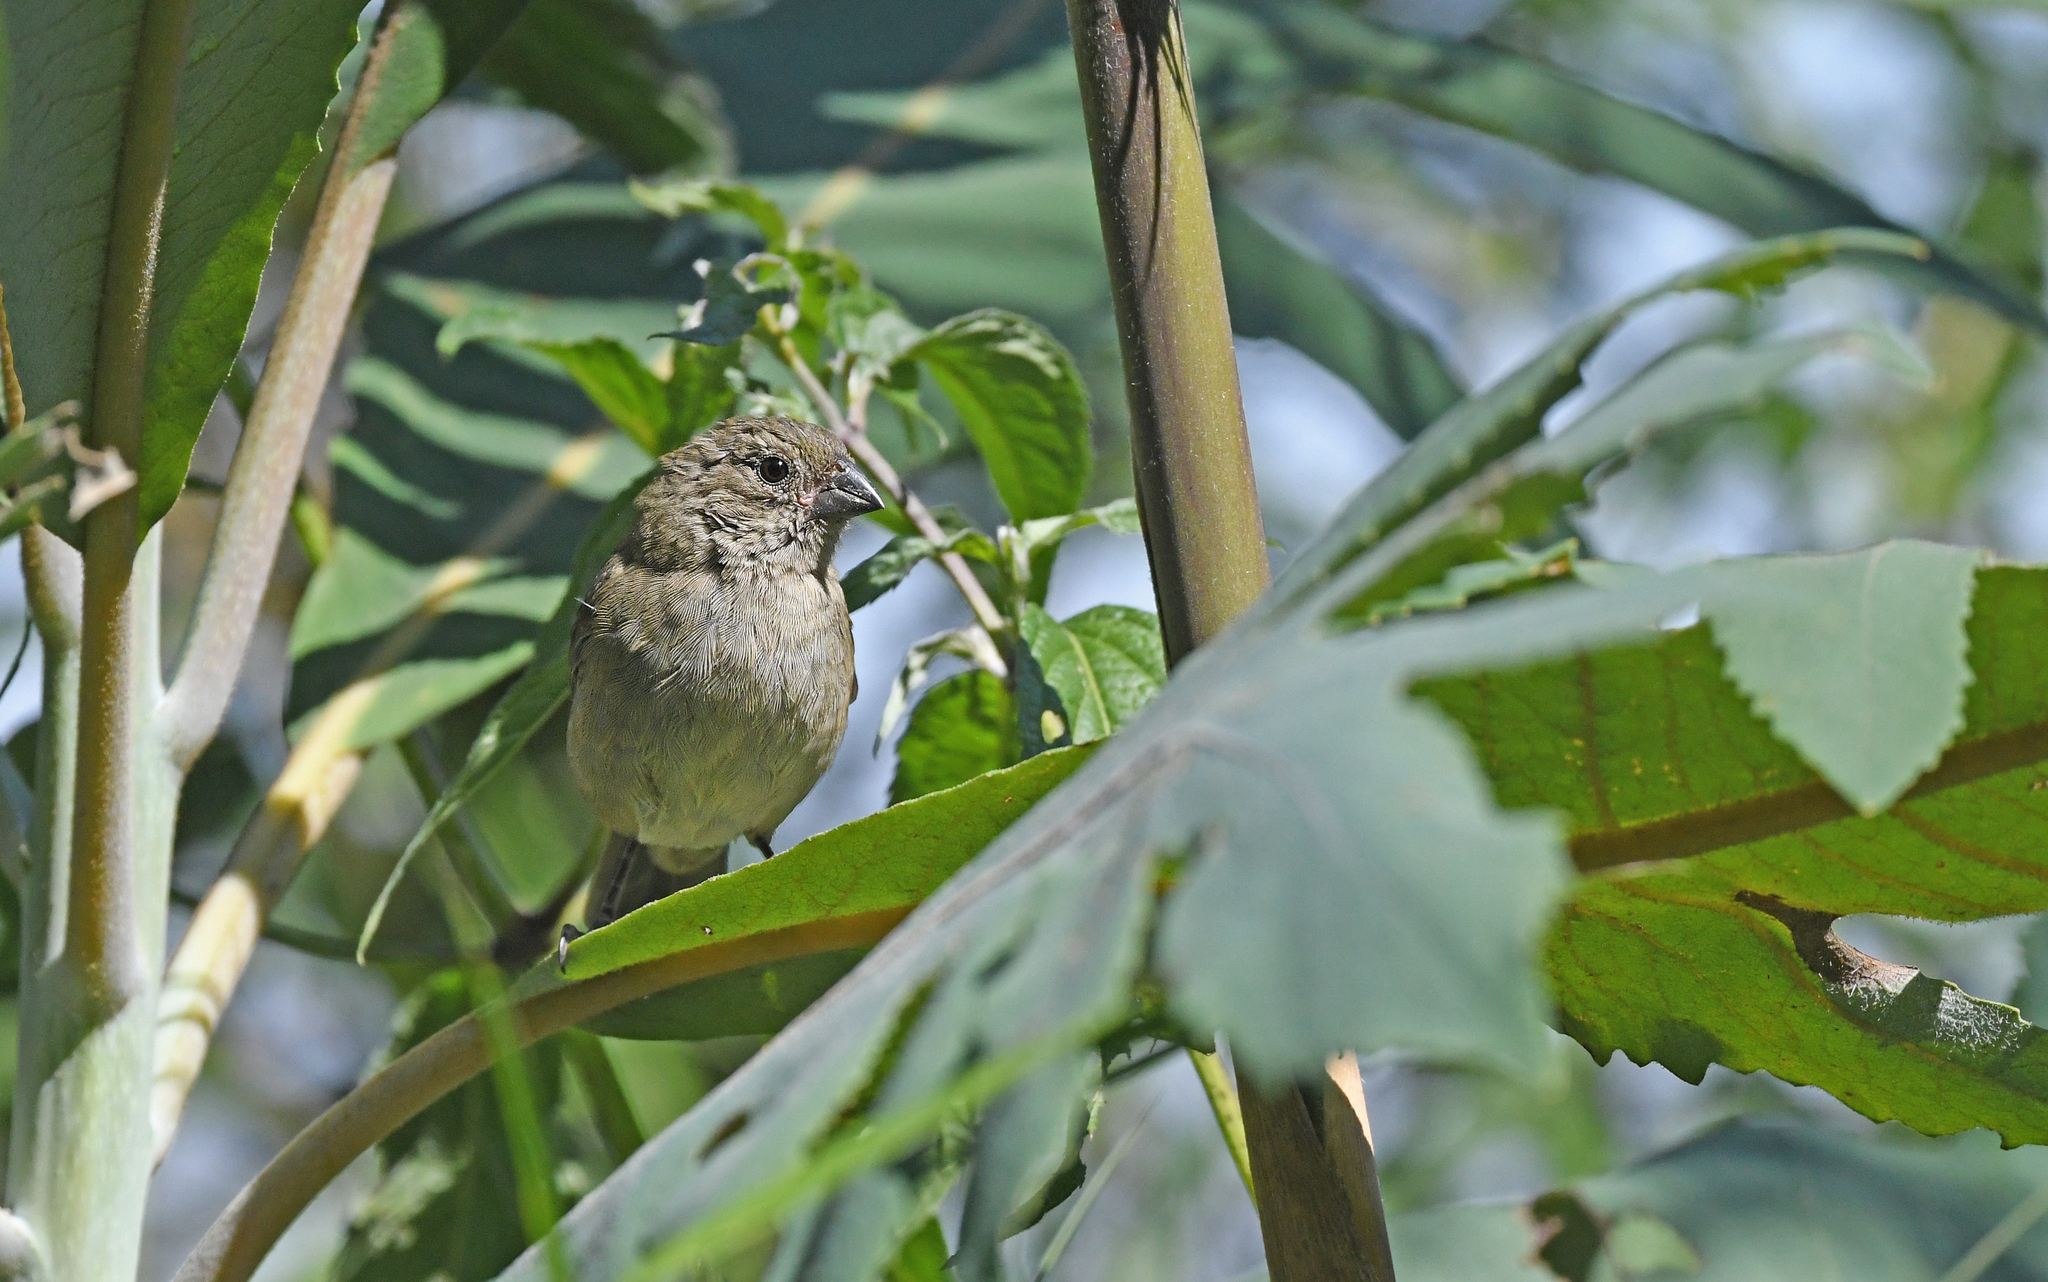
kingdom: Animalia
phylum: Chordata
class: Aves
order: Passeriformes
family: Thraupidae
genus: Asemospiza
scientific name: Asemospiza fuliginosa
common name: Sooty grassquit
